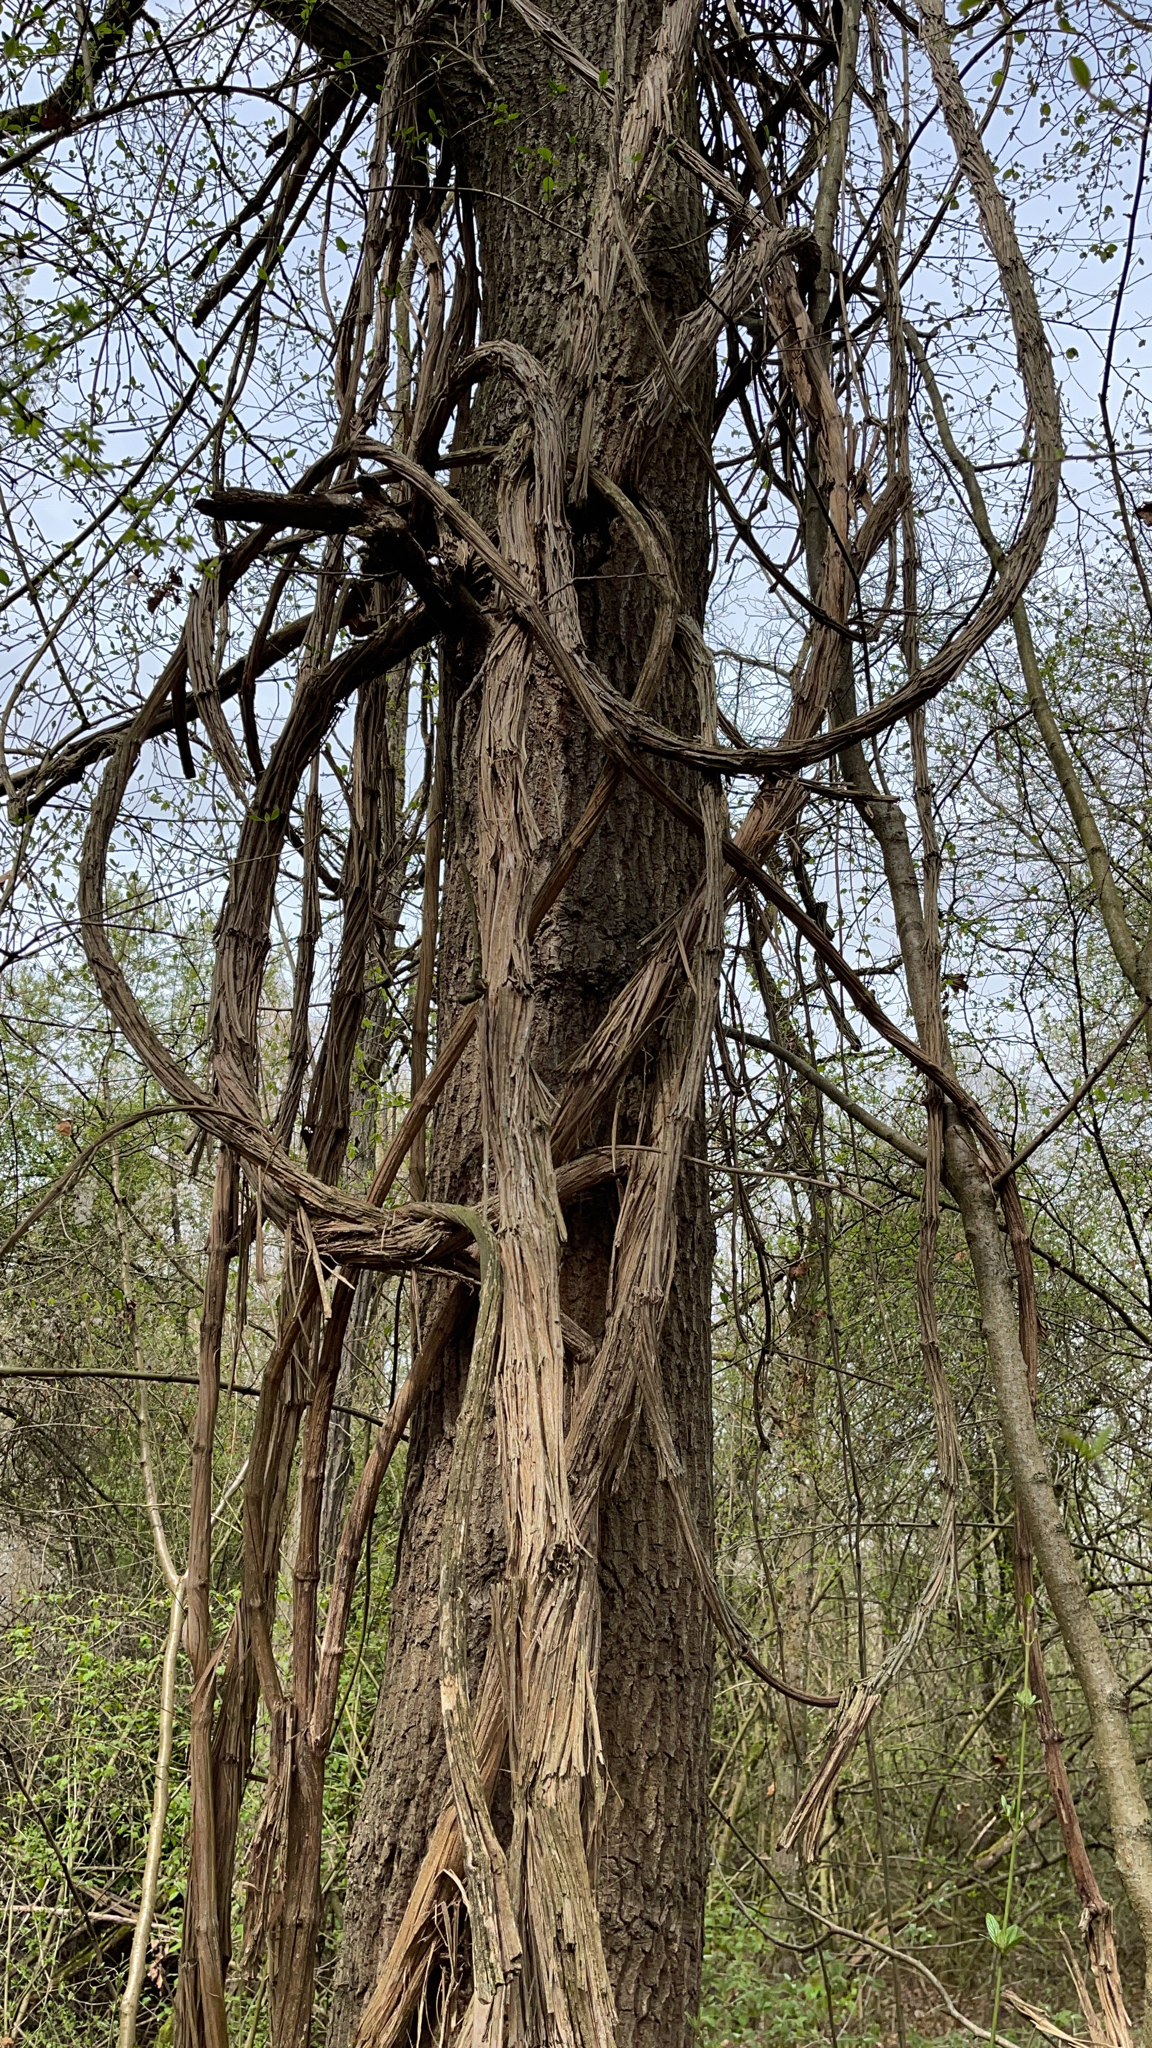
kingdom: Plantae
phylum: Tracheophyta
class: Magnoliopsida
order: Ranunculales
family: Ranunculaceae
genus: Clematis
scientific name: Clematis vitalba
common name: Evergreen clematis
